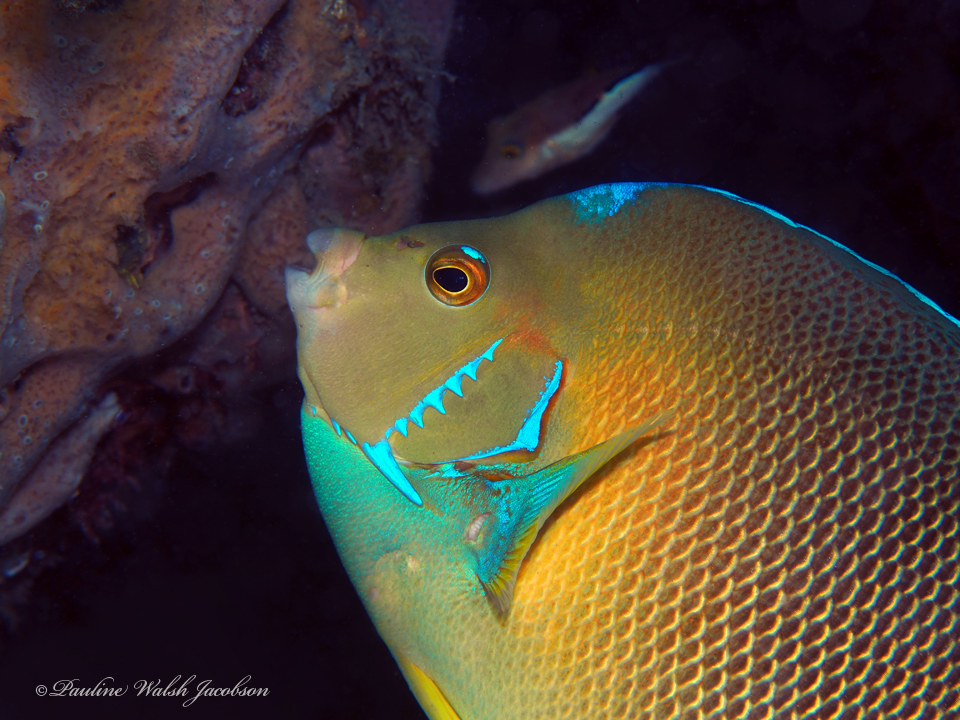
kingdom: Animalia
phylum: Chordata
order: Perciformes
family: Pomacanthidae
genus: Holacanthus
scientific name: Holacanthus ciliaris
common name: Queen angelfish
